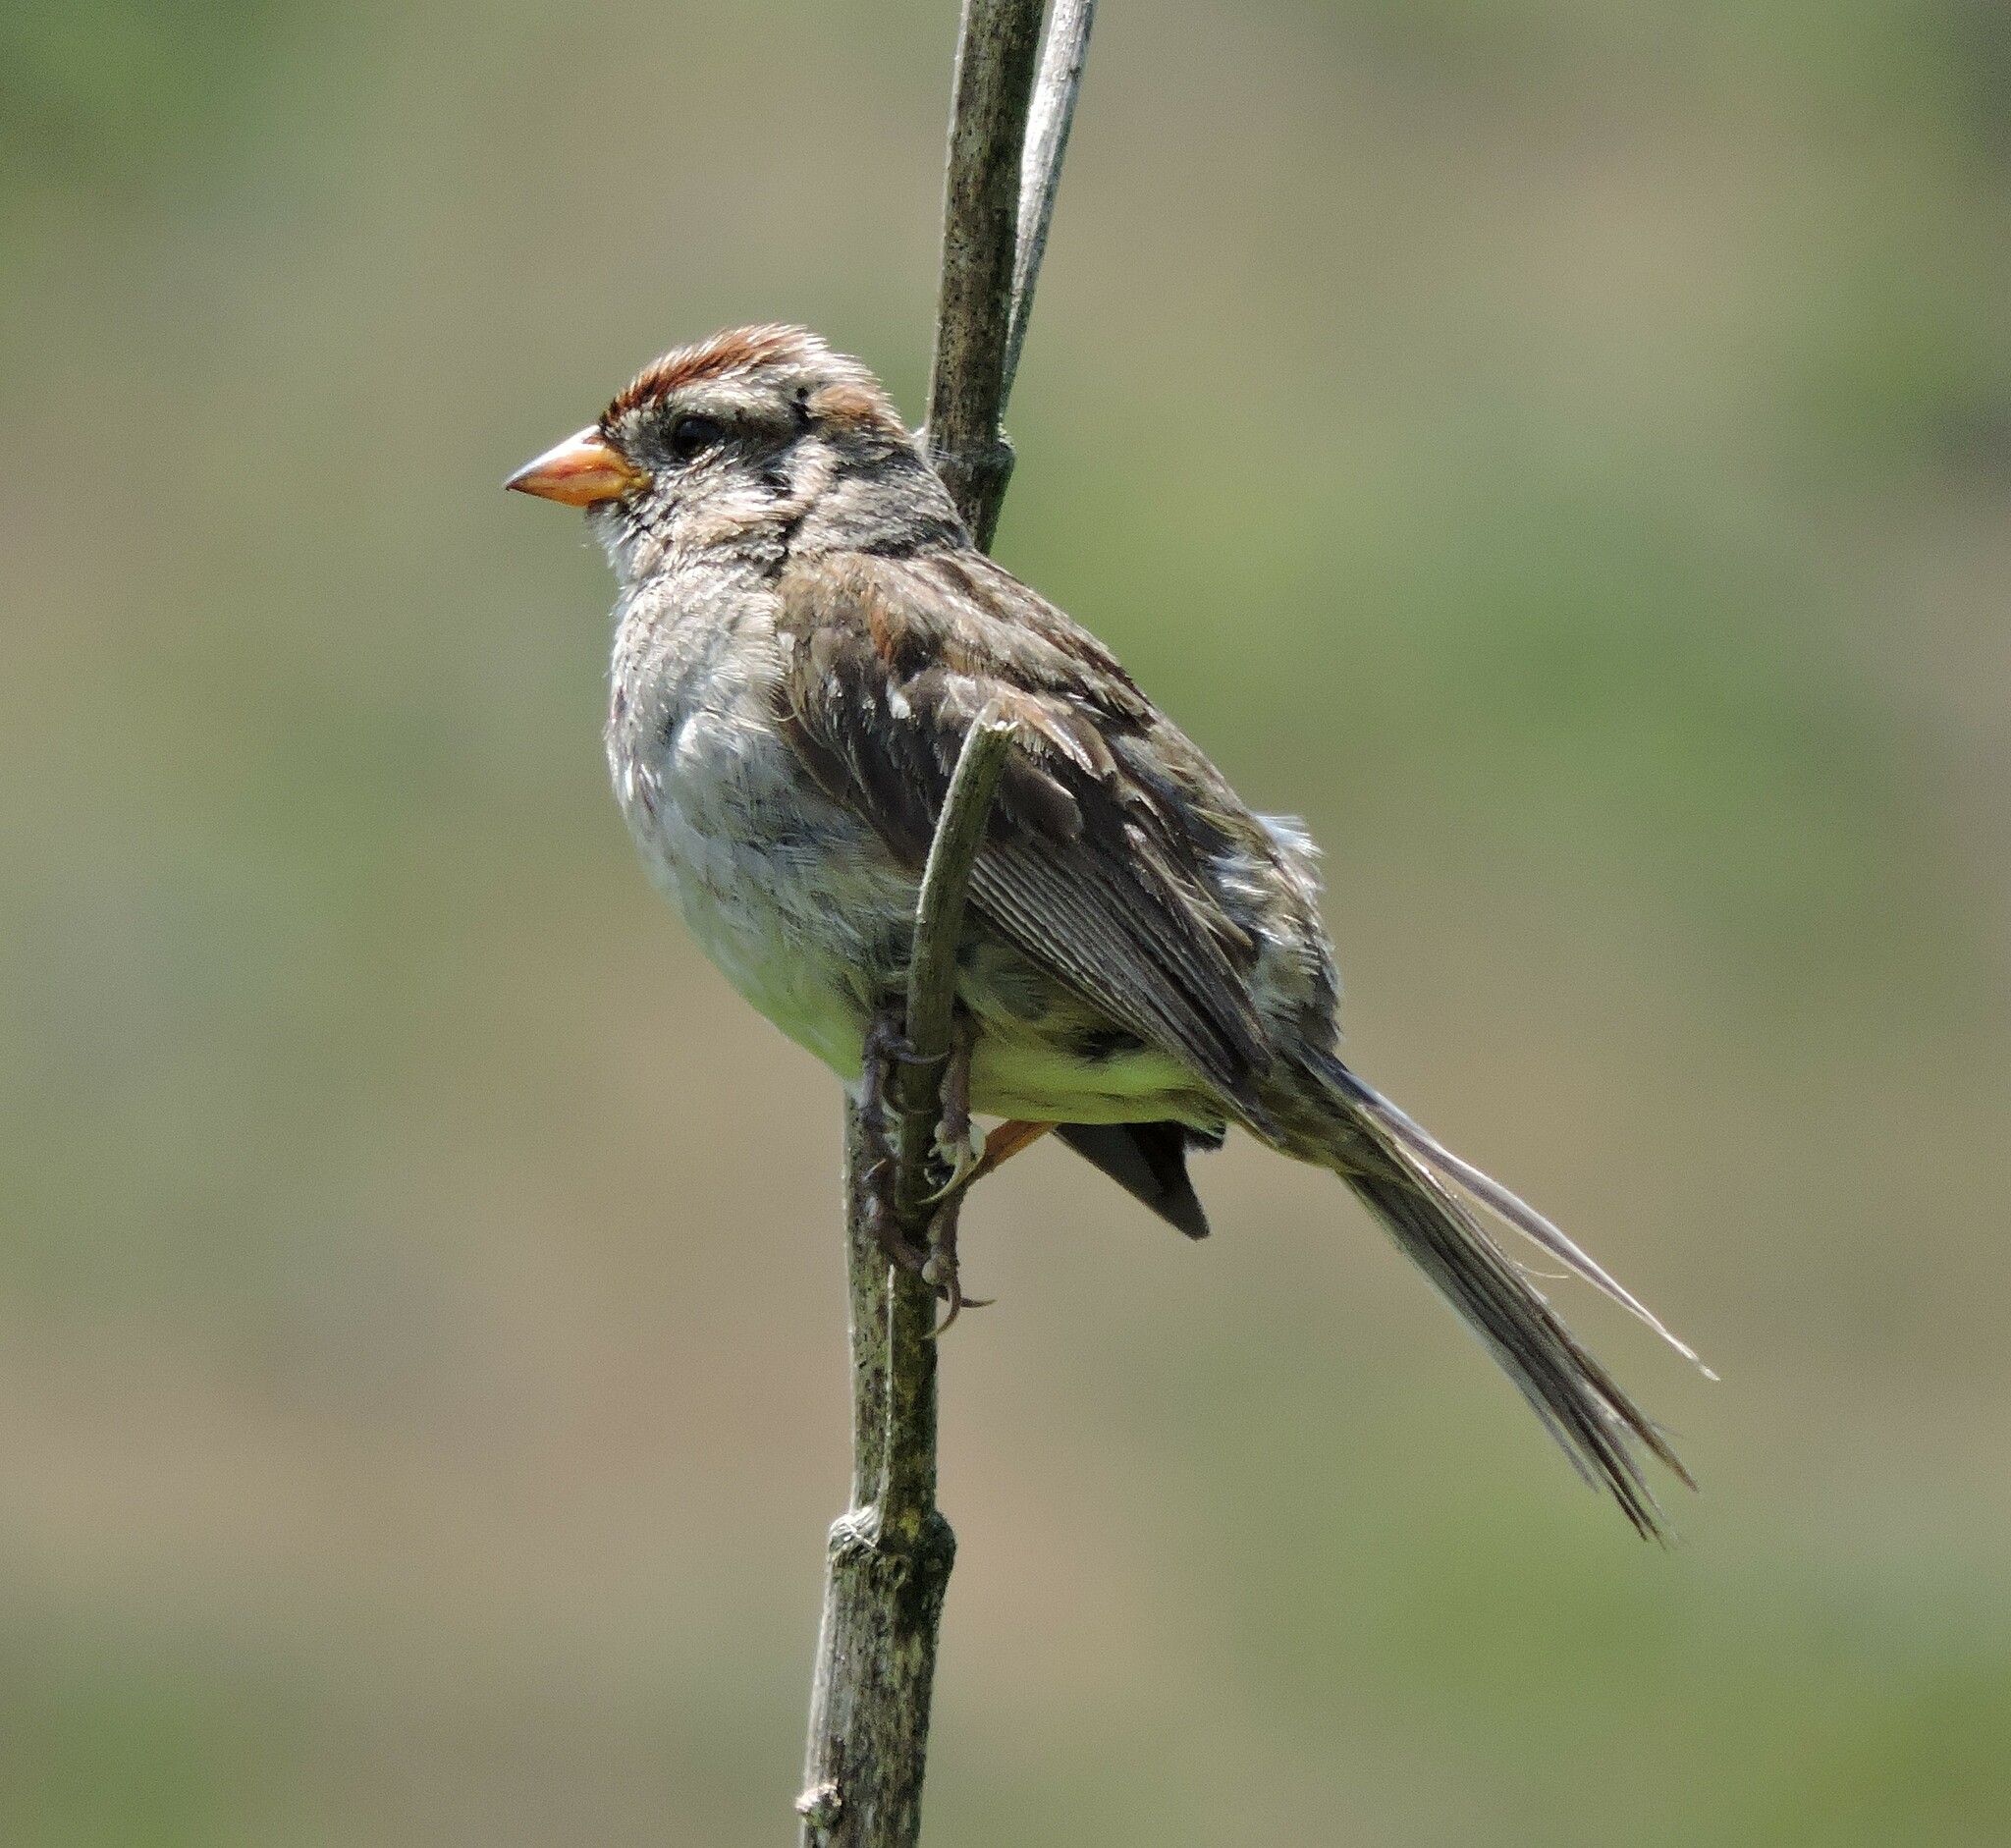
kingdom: Animalia
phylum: Chordata
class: Aves
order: Passeriformes
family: Passerellidae
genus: Zonotrichia
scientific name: Zonotrichia leucophrys
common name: White-crowned sparrow
